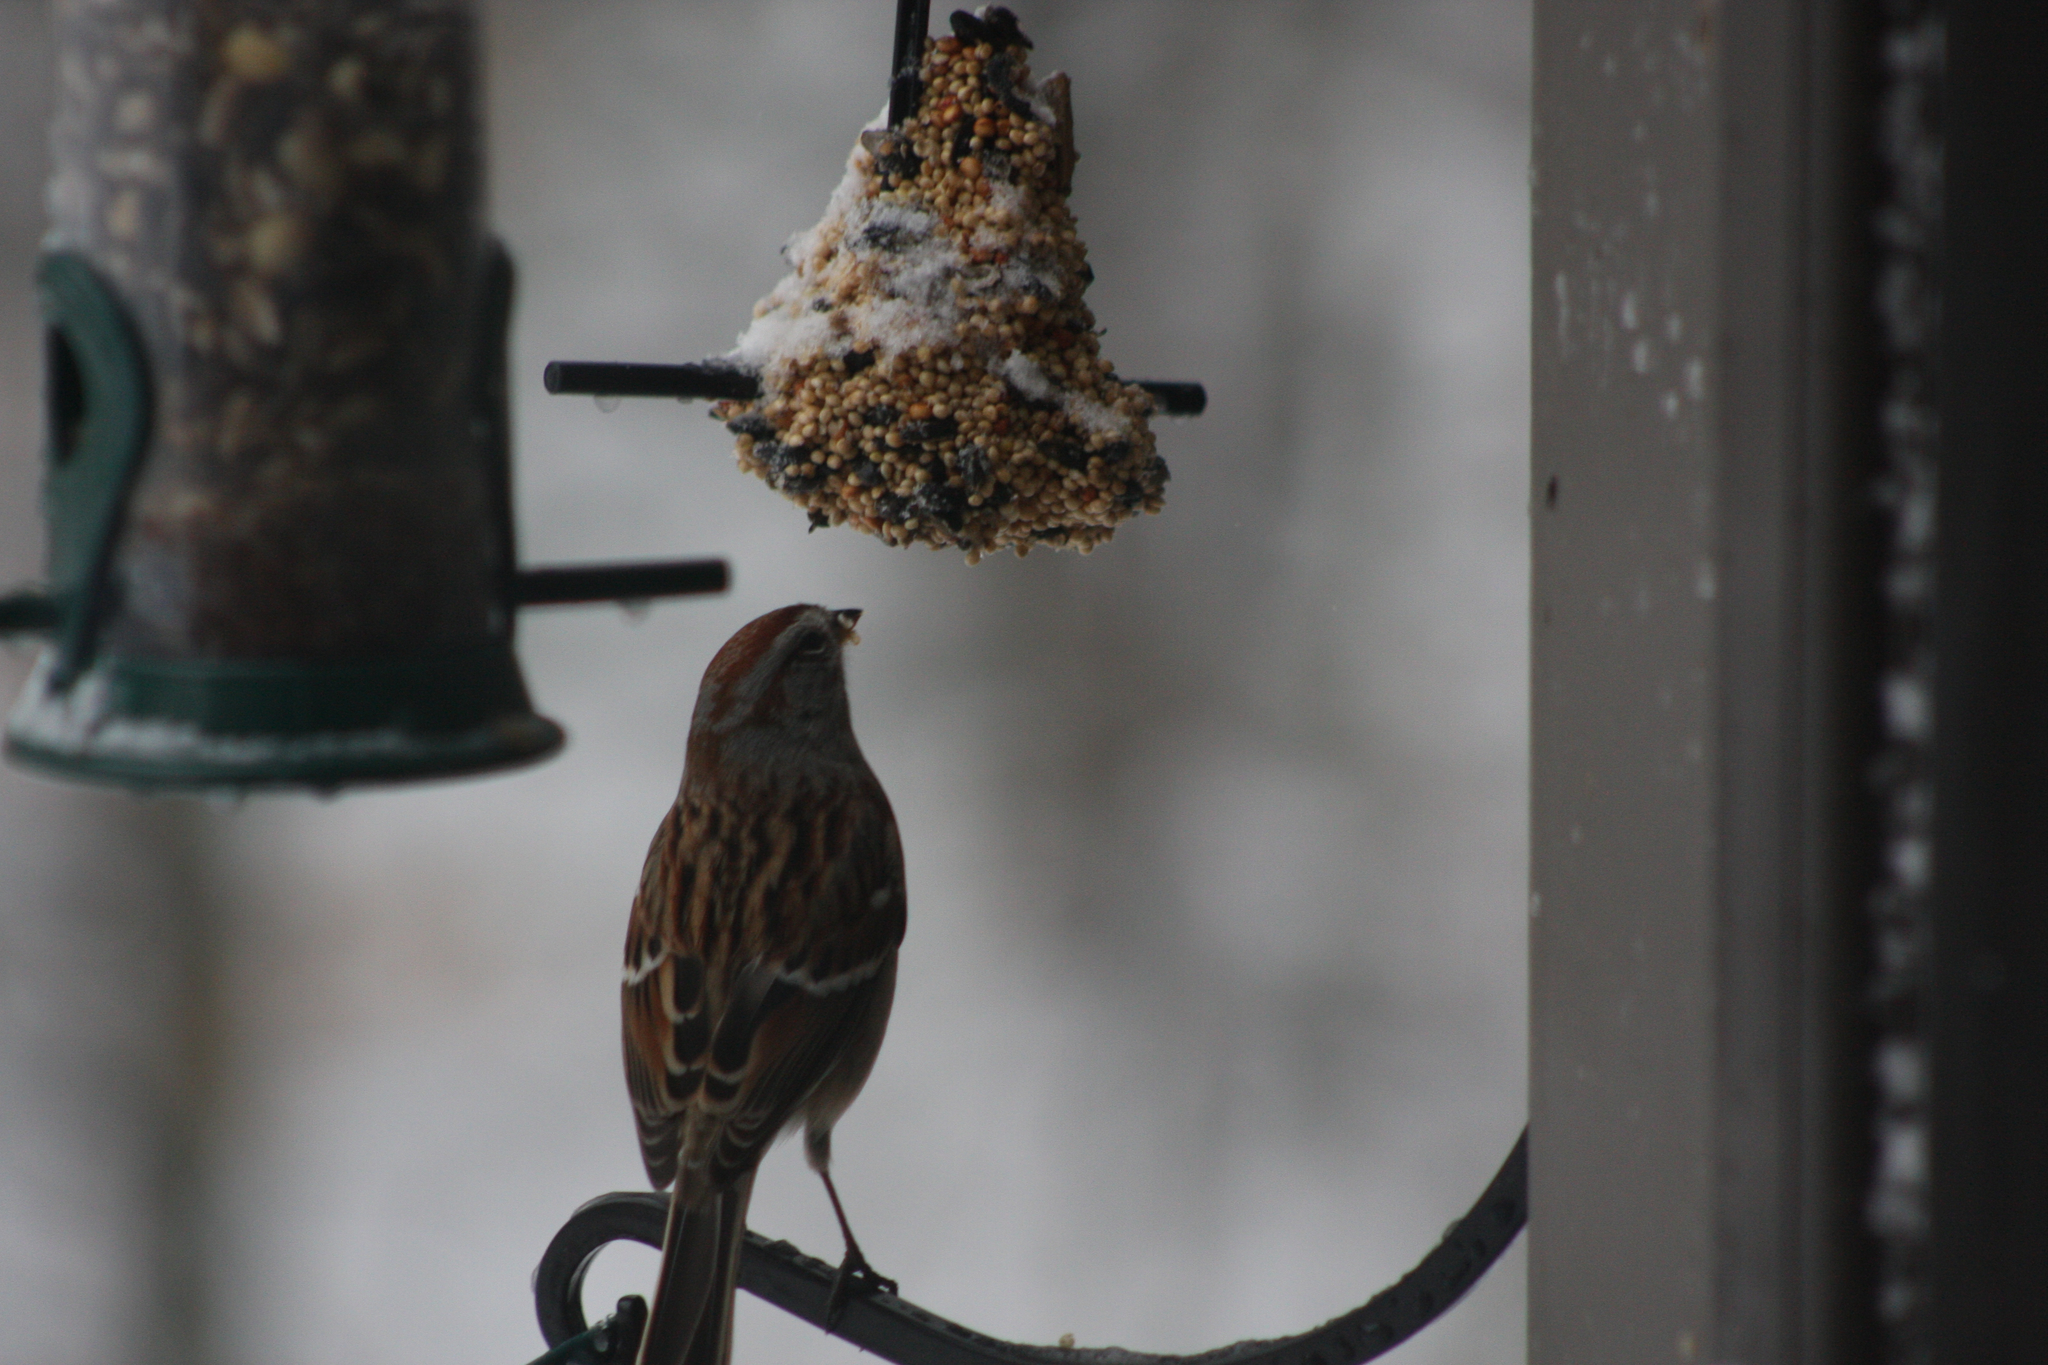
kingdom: Animalia
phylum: Chordata
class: Aves
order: Passeriformes
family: Passerellidae
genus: Spizelloides
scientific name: Spizelloides arborea
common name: American tree sparrow
